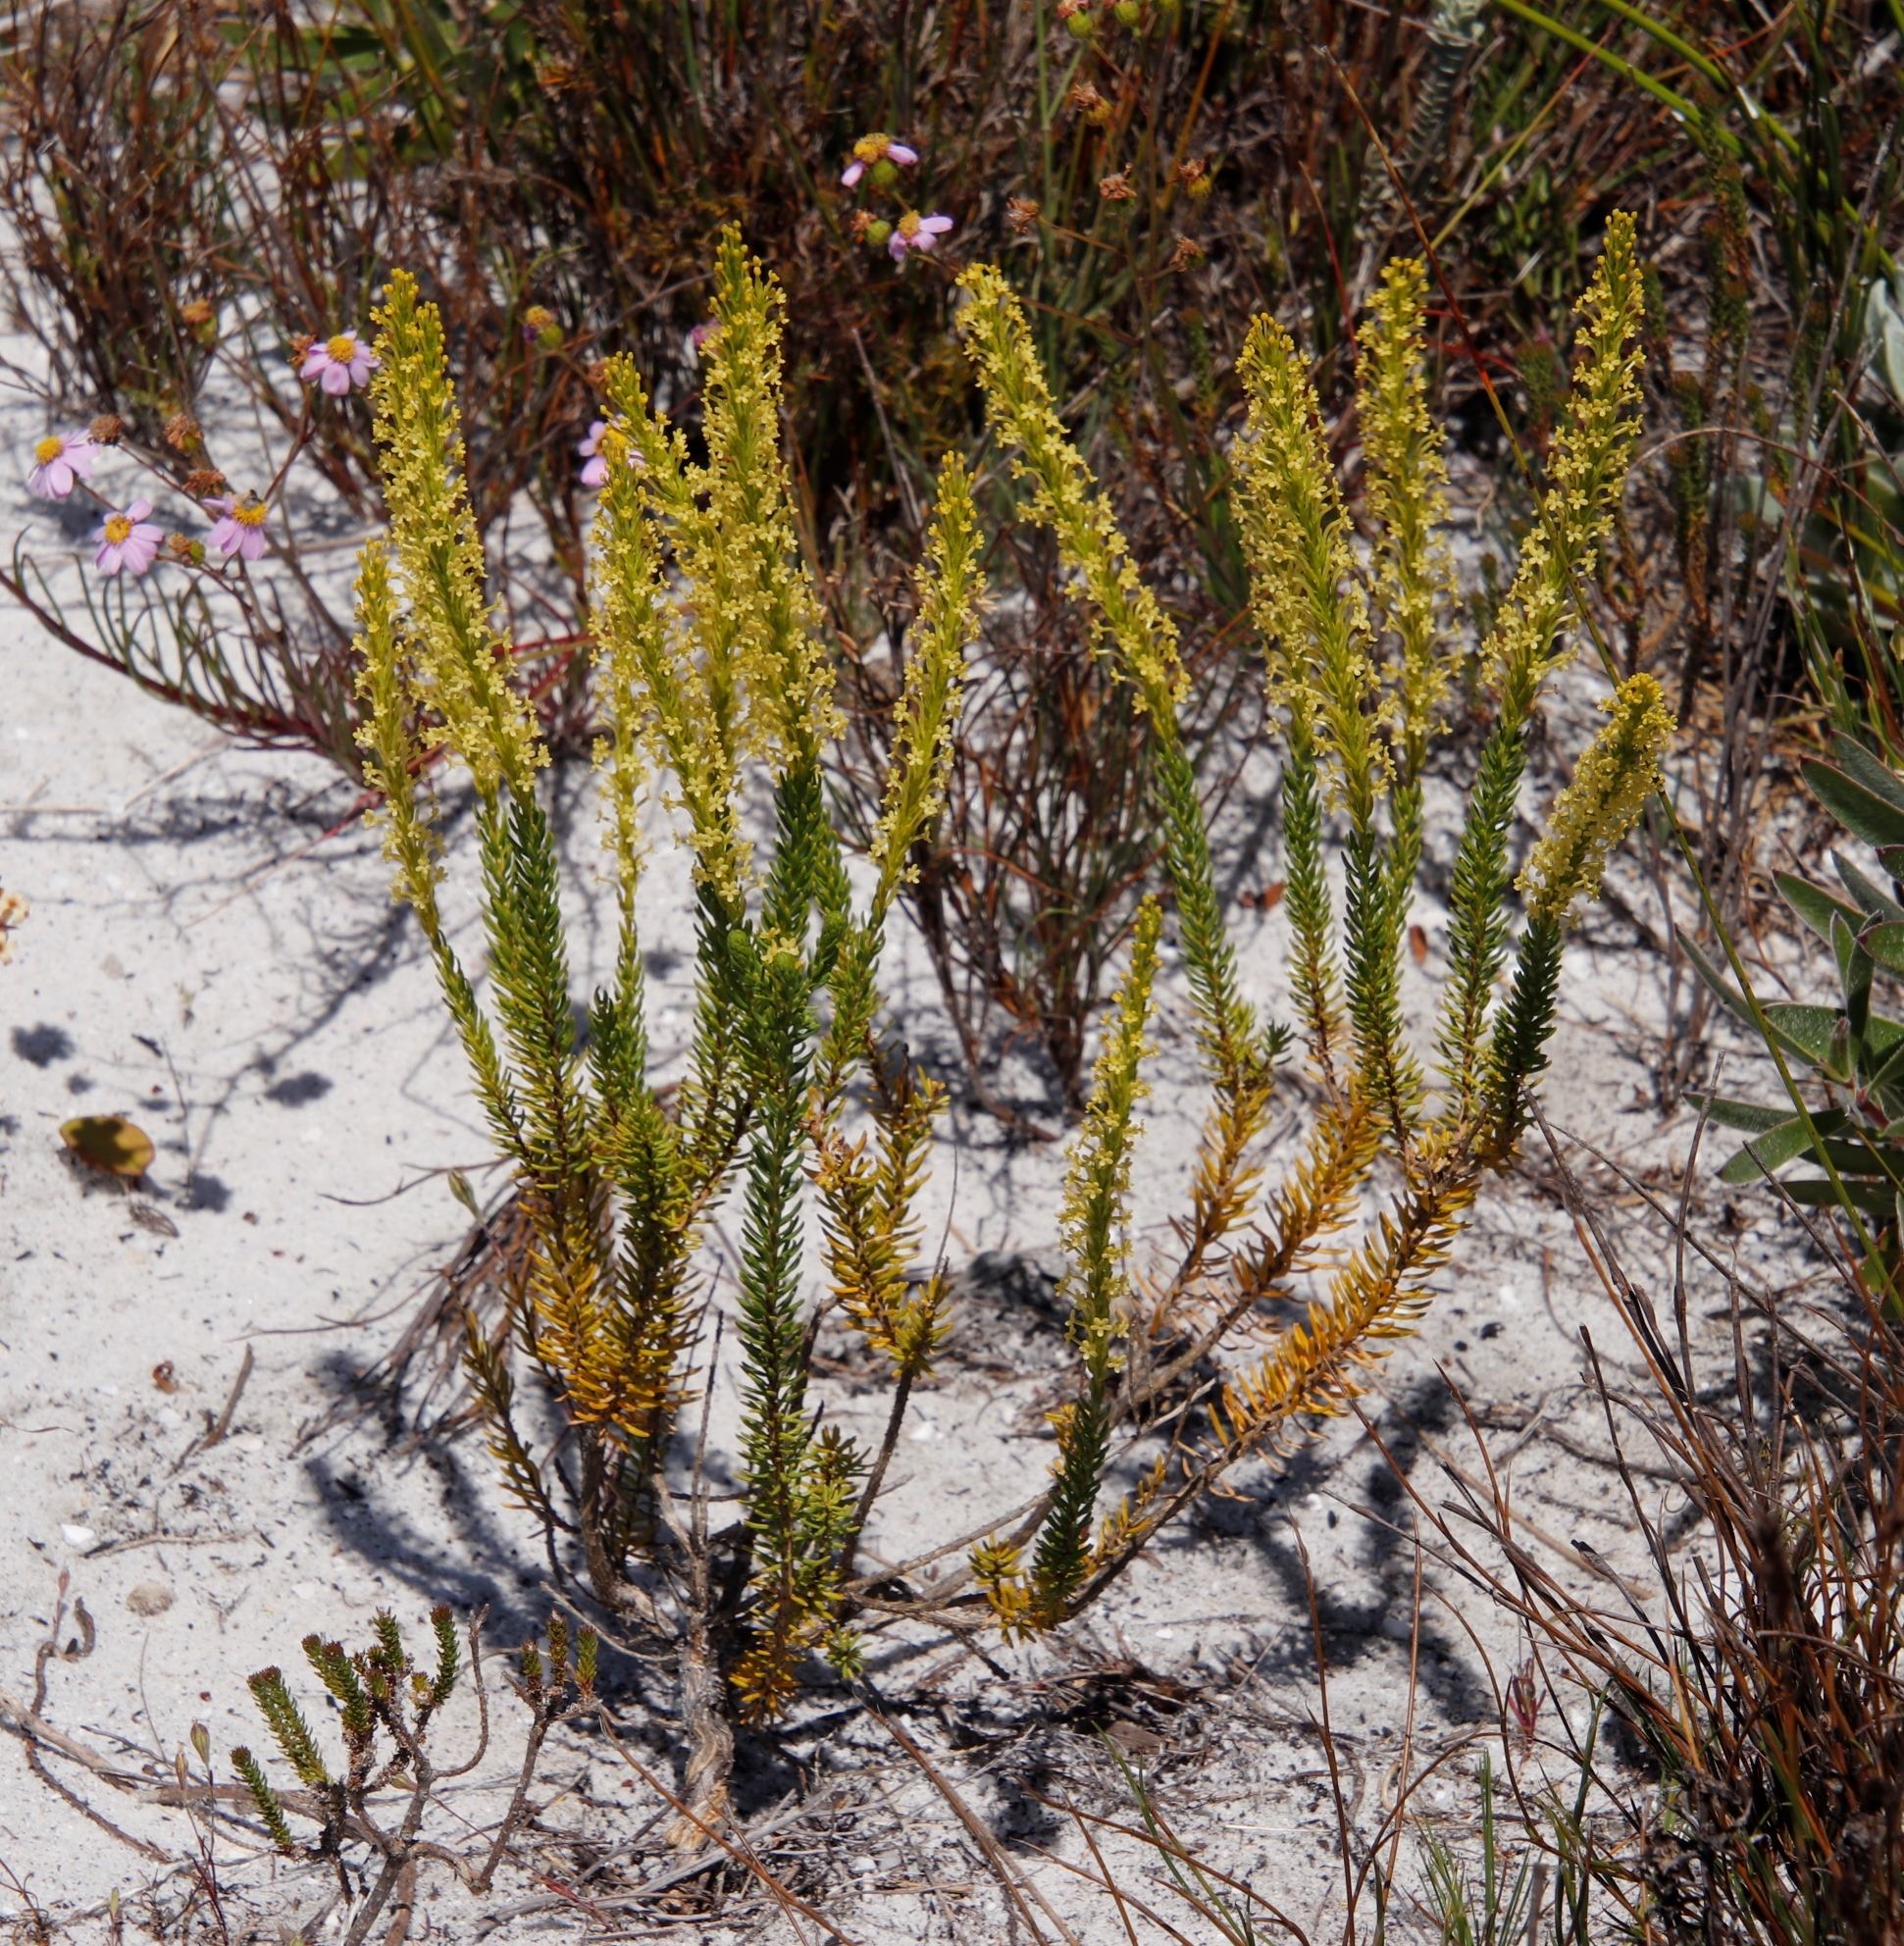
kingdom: Plantae
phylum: Tracheophyta
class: Magnoliopsida
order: Lamiales
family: Scrophulariaceae
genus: Microdon
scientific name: Microdon dubius
